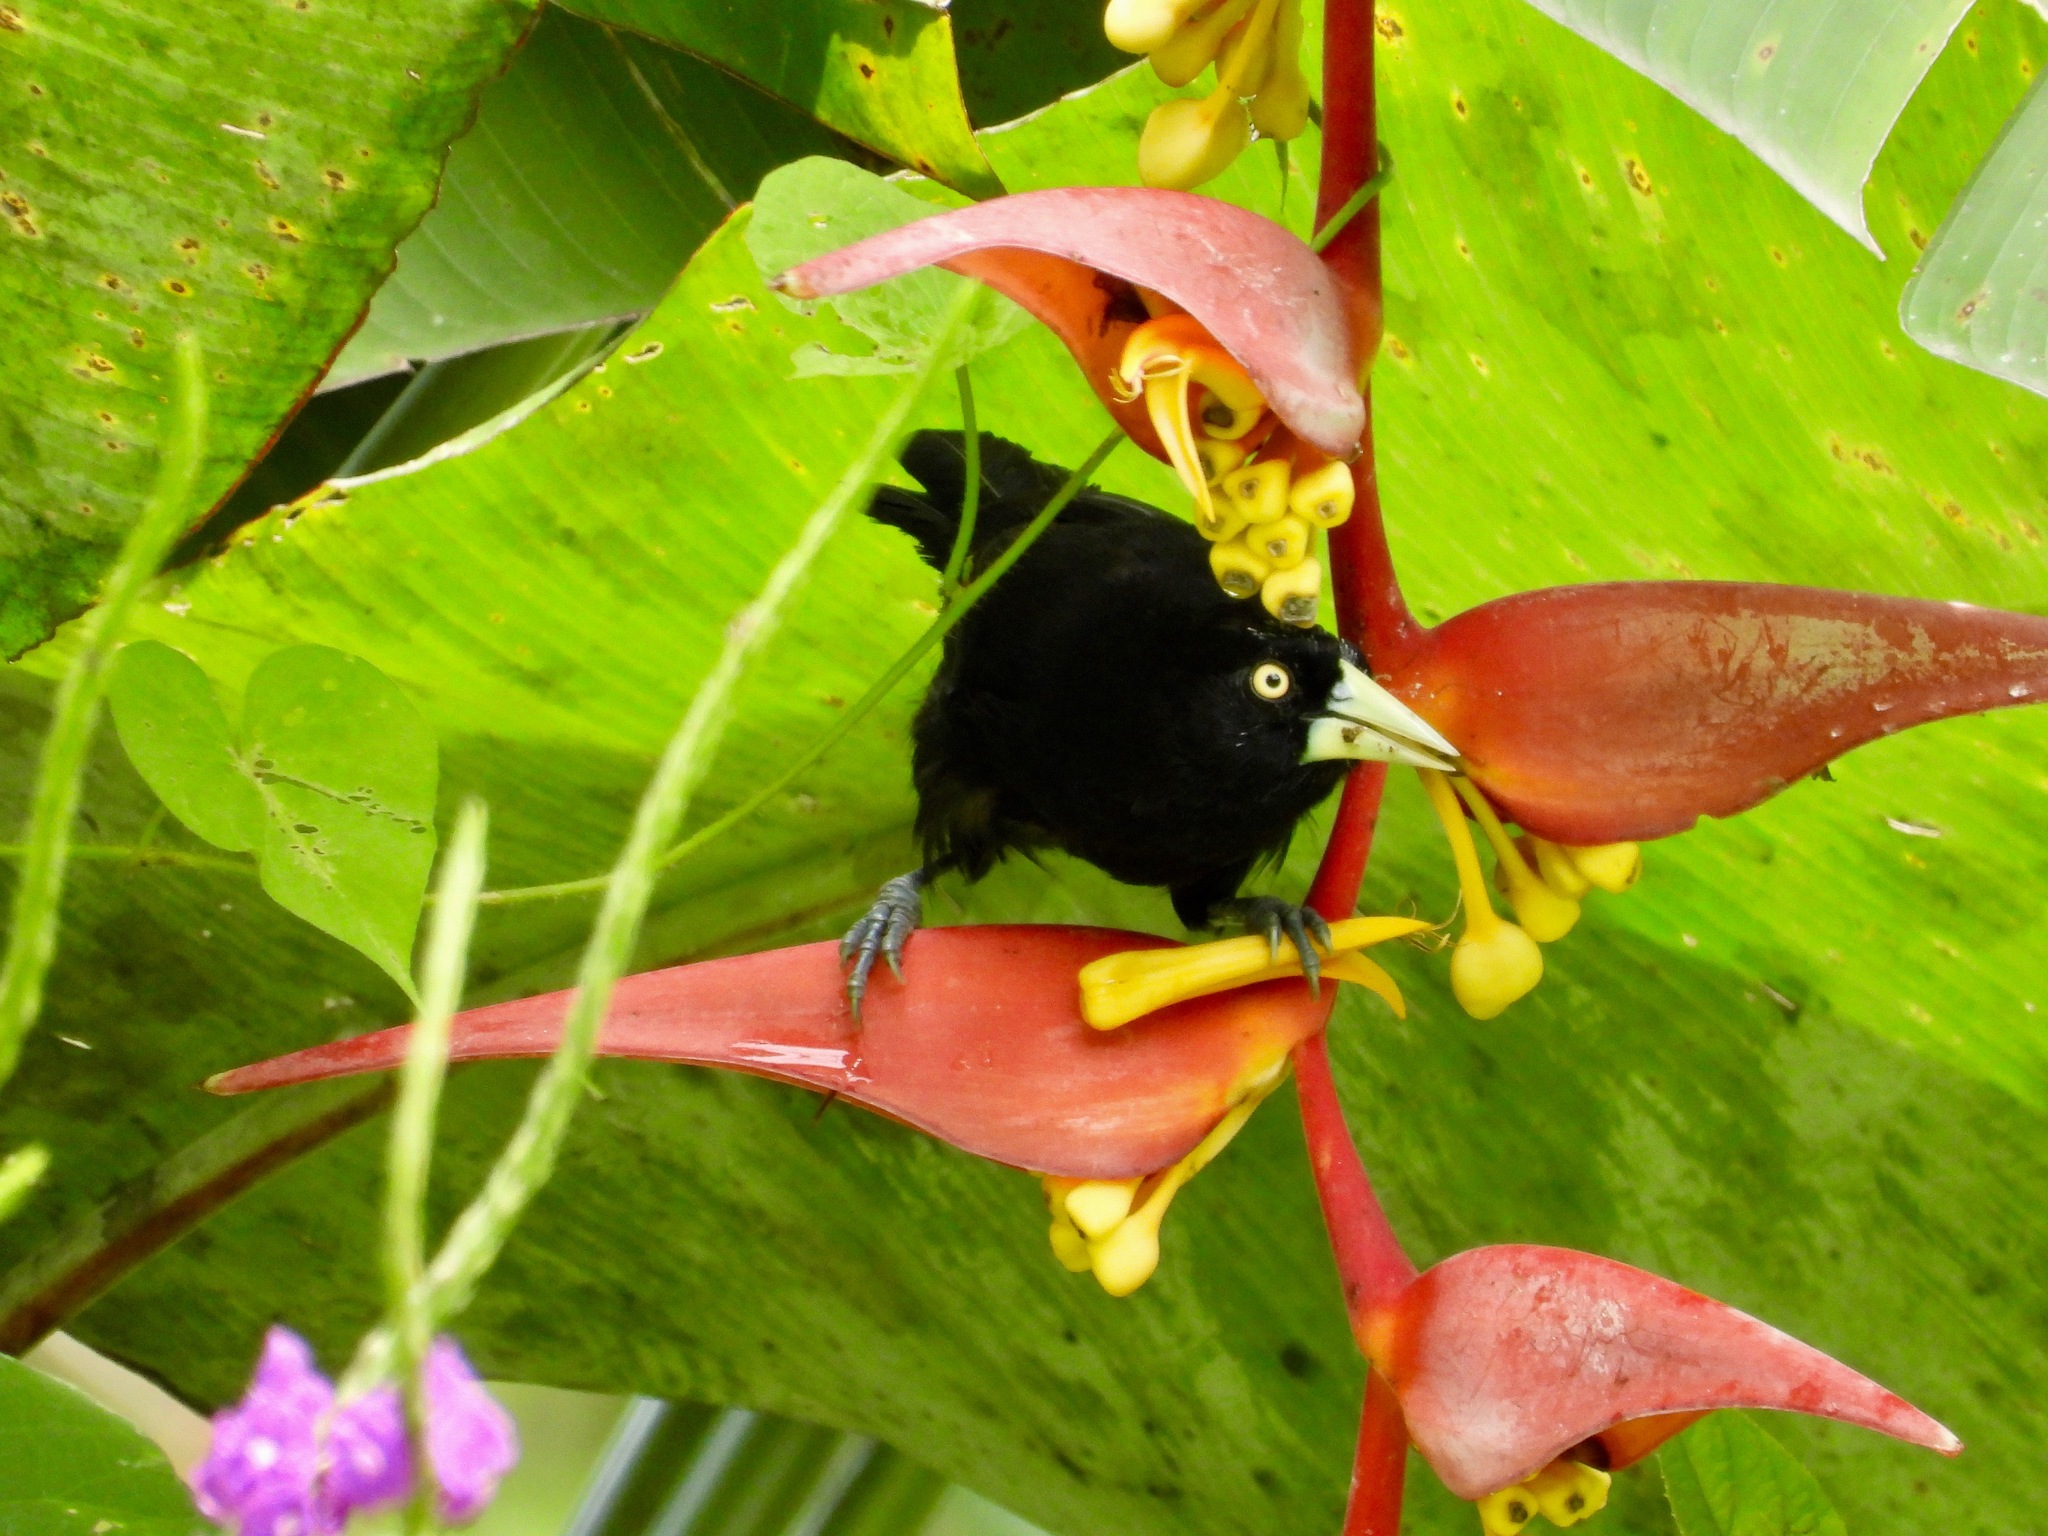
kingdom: Animalia
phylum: Chordata
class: Aves
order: Passeriformes
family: Icteridae
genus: Amblycercus
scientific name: Amblycercus holosericeus
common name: Yellow-billed cacique
